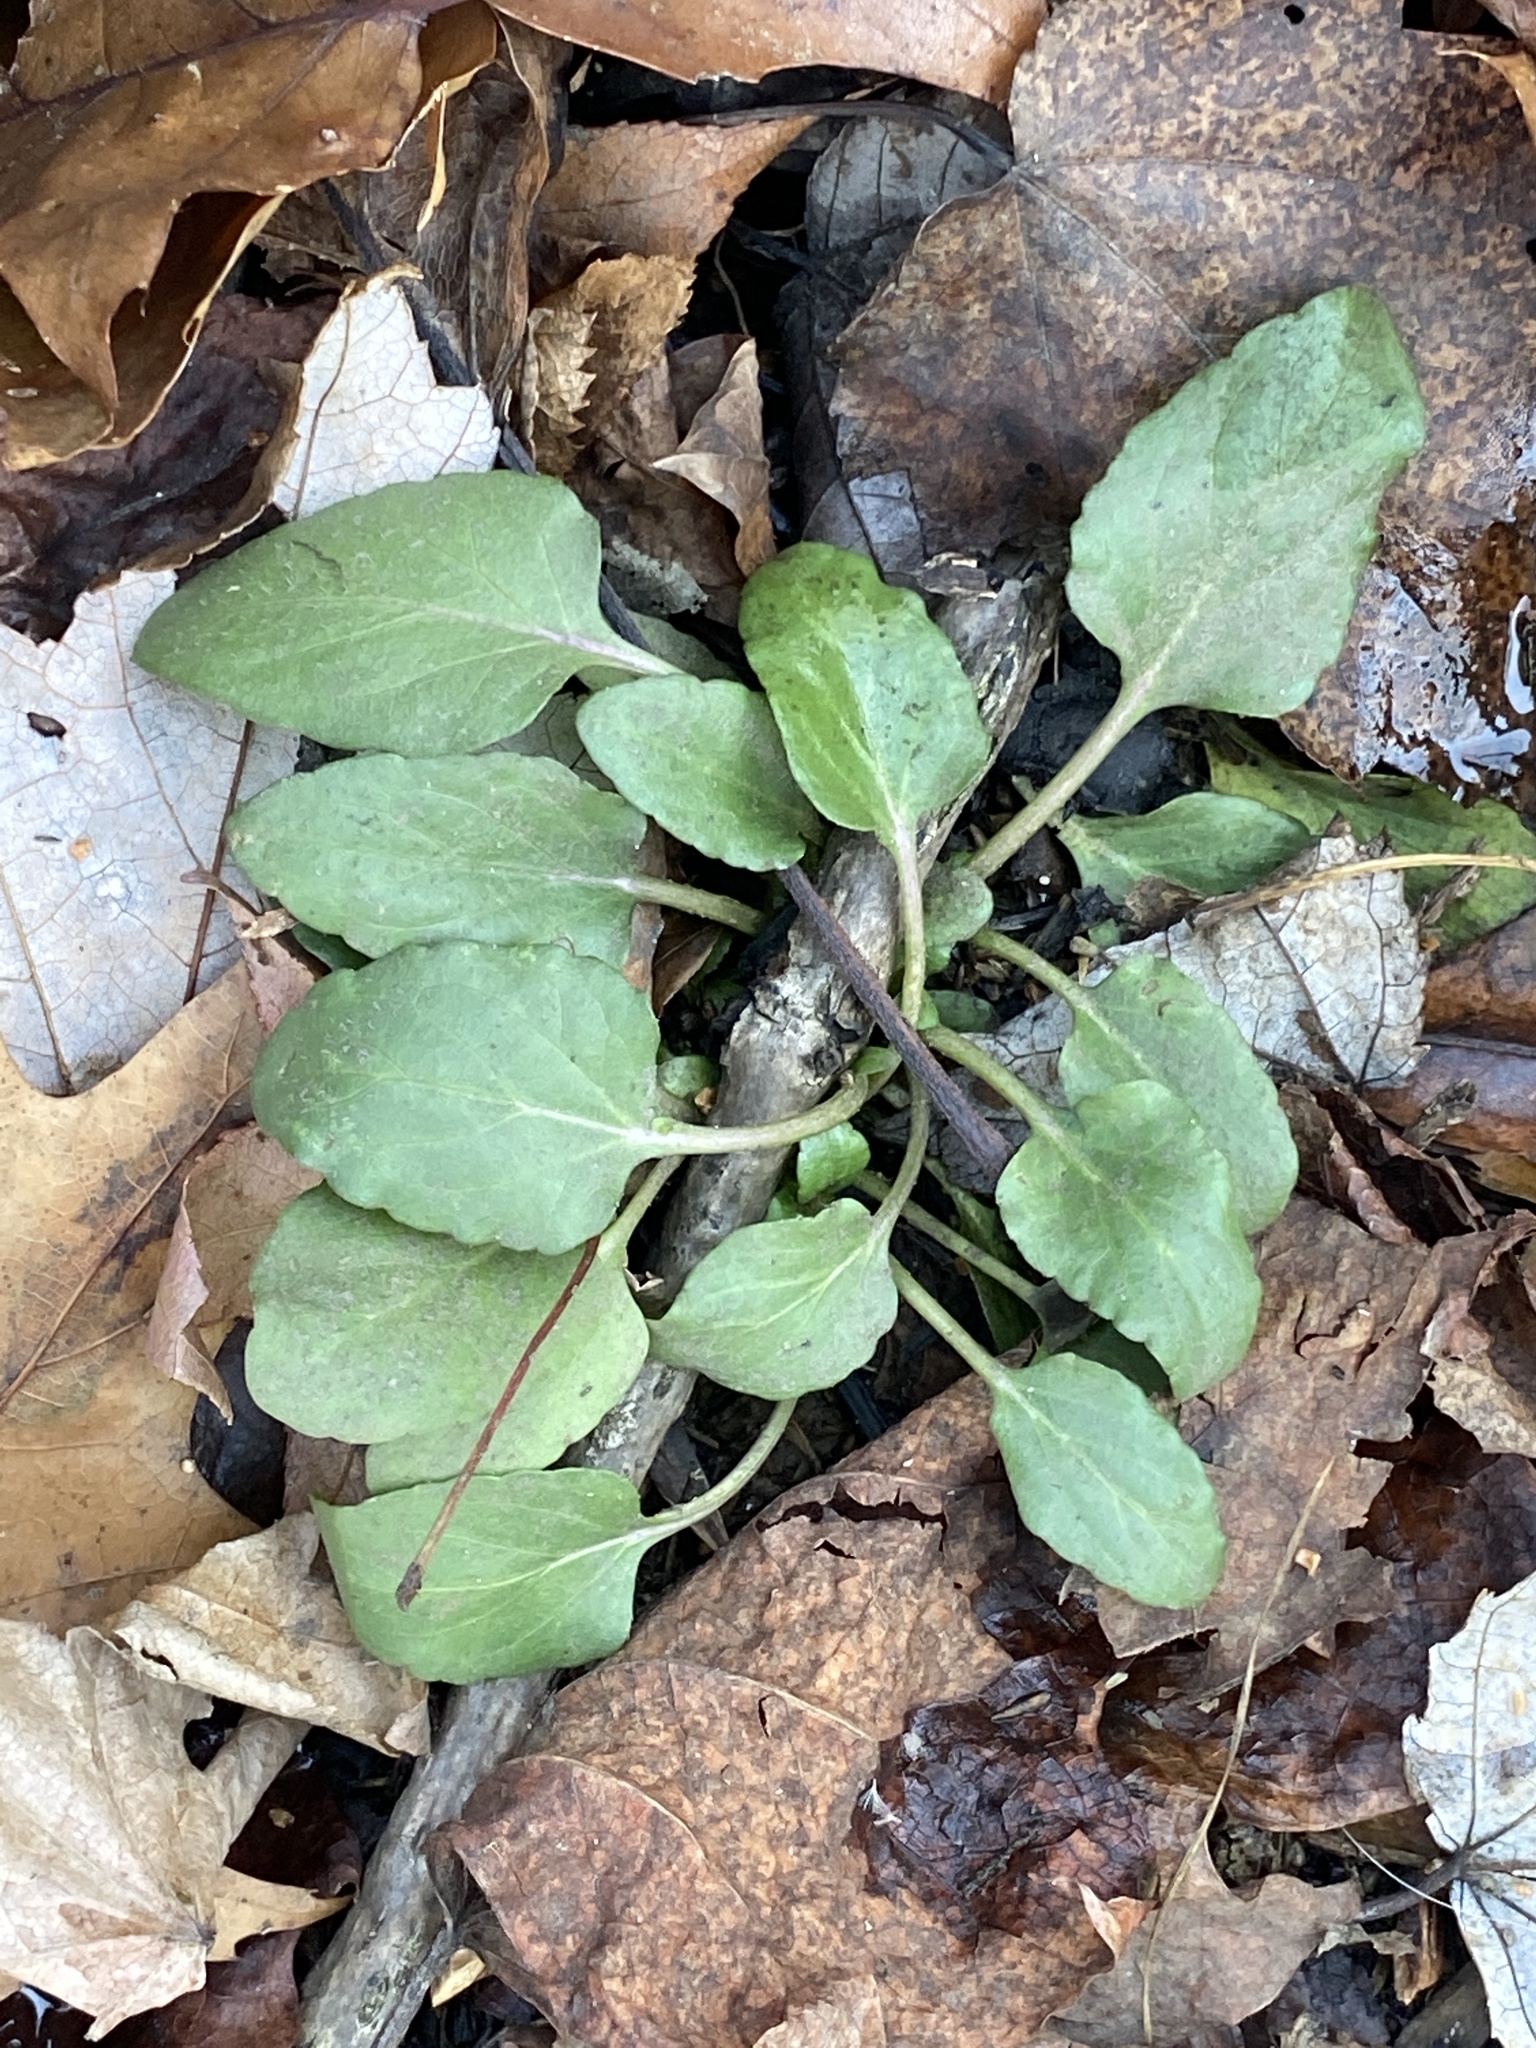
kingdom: Plantae
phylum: Tracheophyta
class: Magnoliopsida
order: Lamiales
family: Lamiaceae
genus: Prunella
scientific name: Prunella vulgaris
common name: Heal-all
